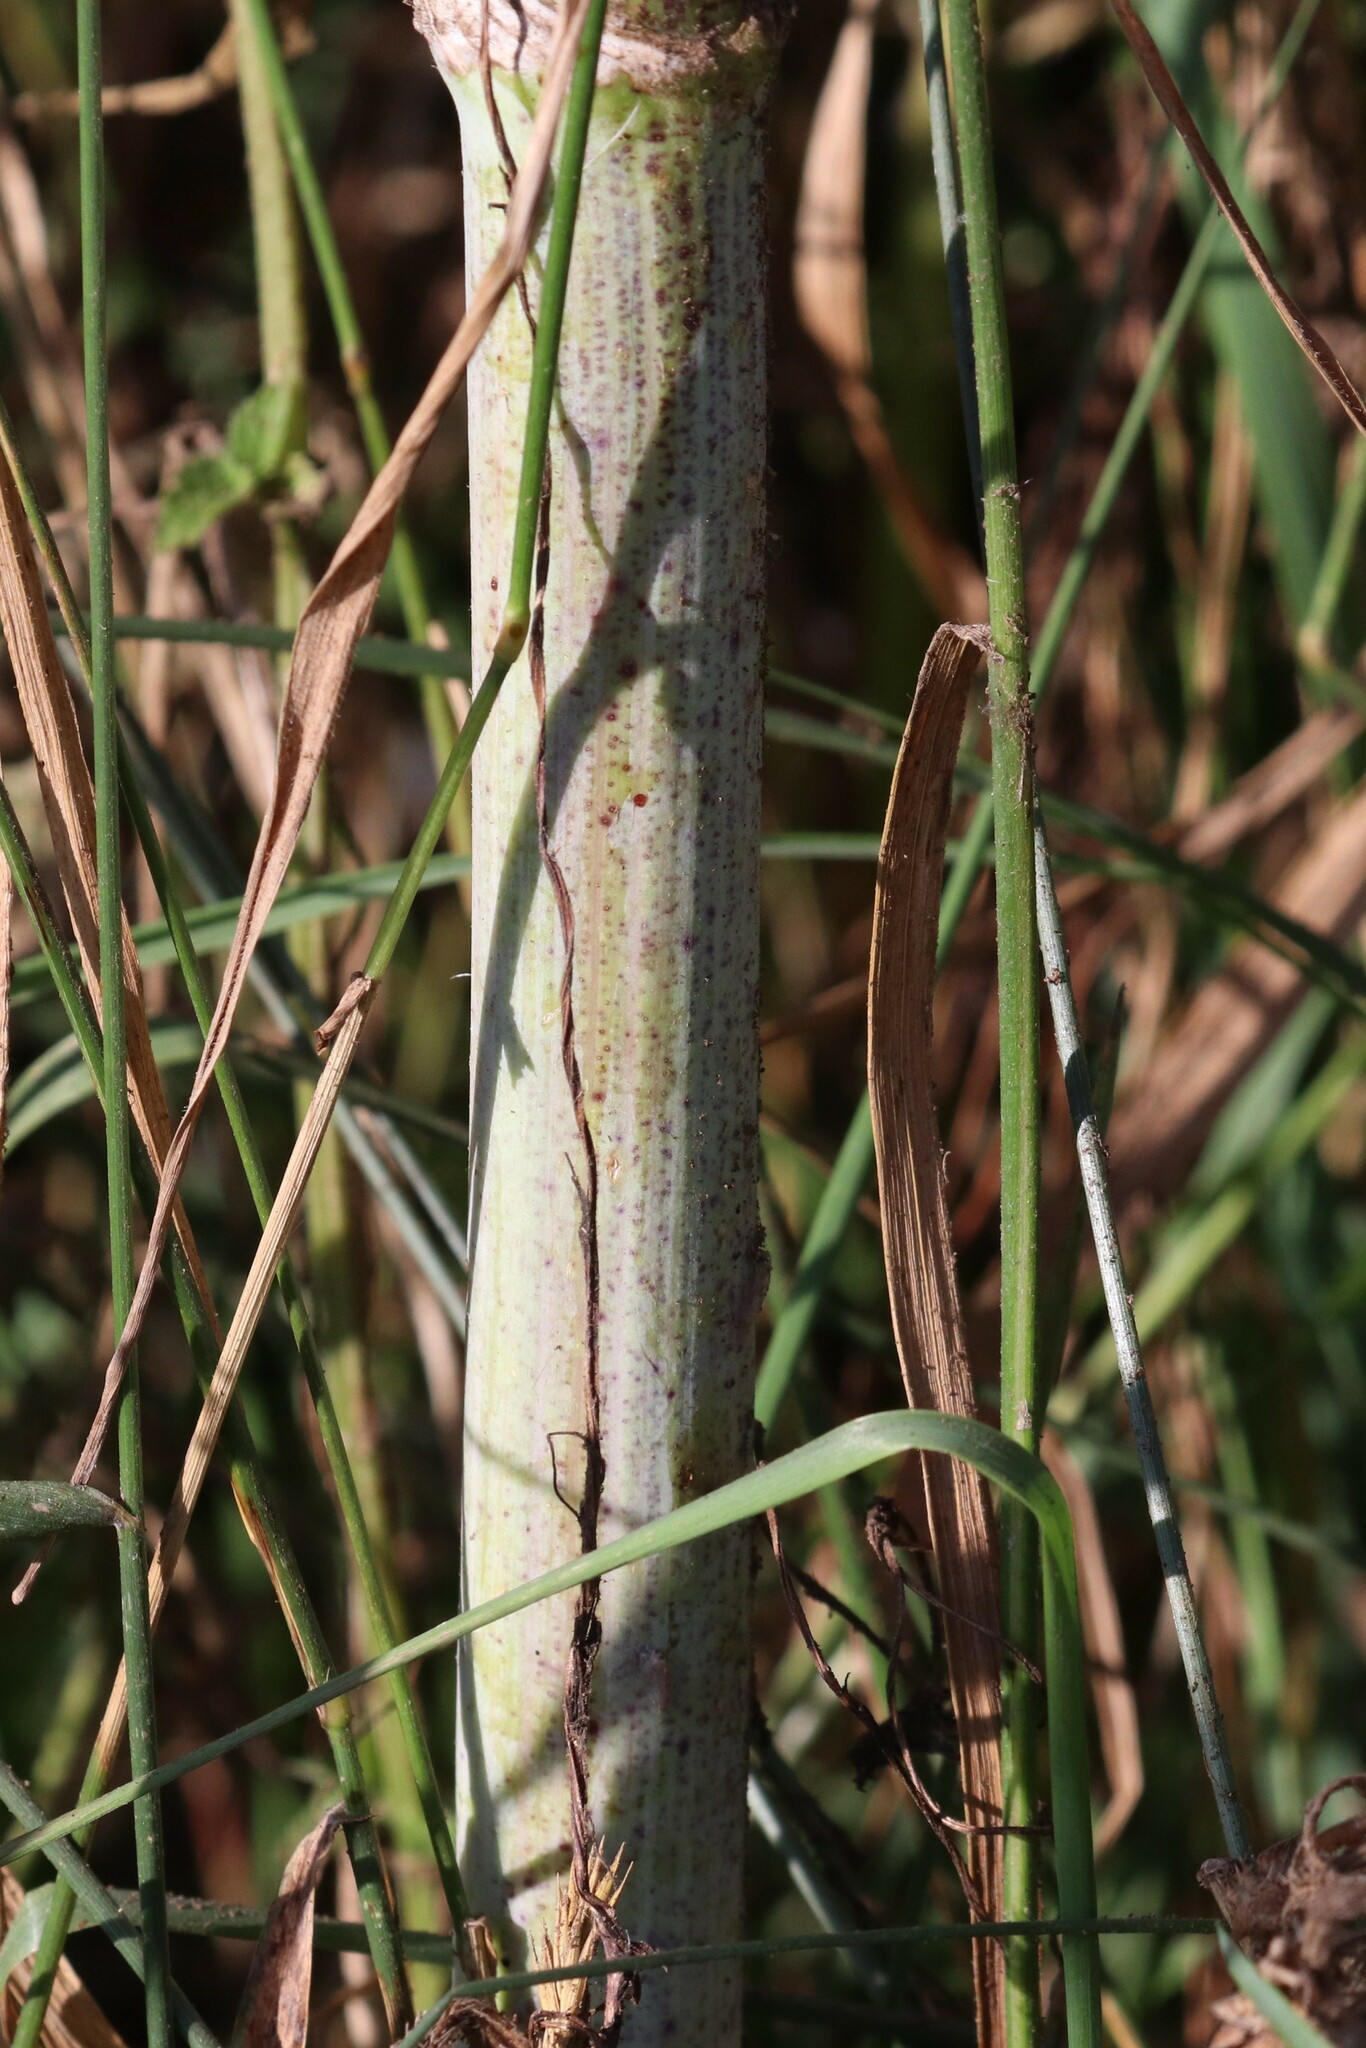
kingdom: Plantae
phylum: Tracheophyta
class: Magnoliopsida
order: Apiales
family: Apiaceae
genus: Conium
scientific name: Conium maculatum
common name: Hemlock
